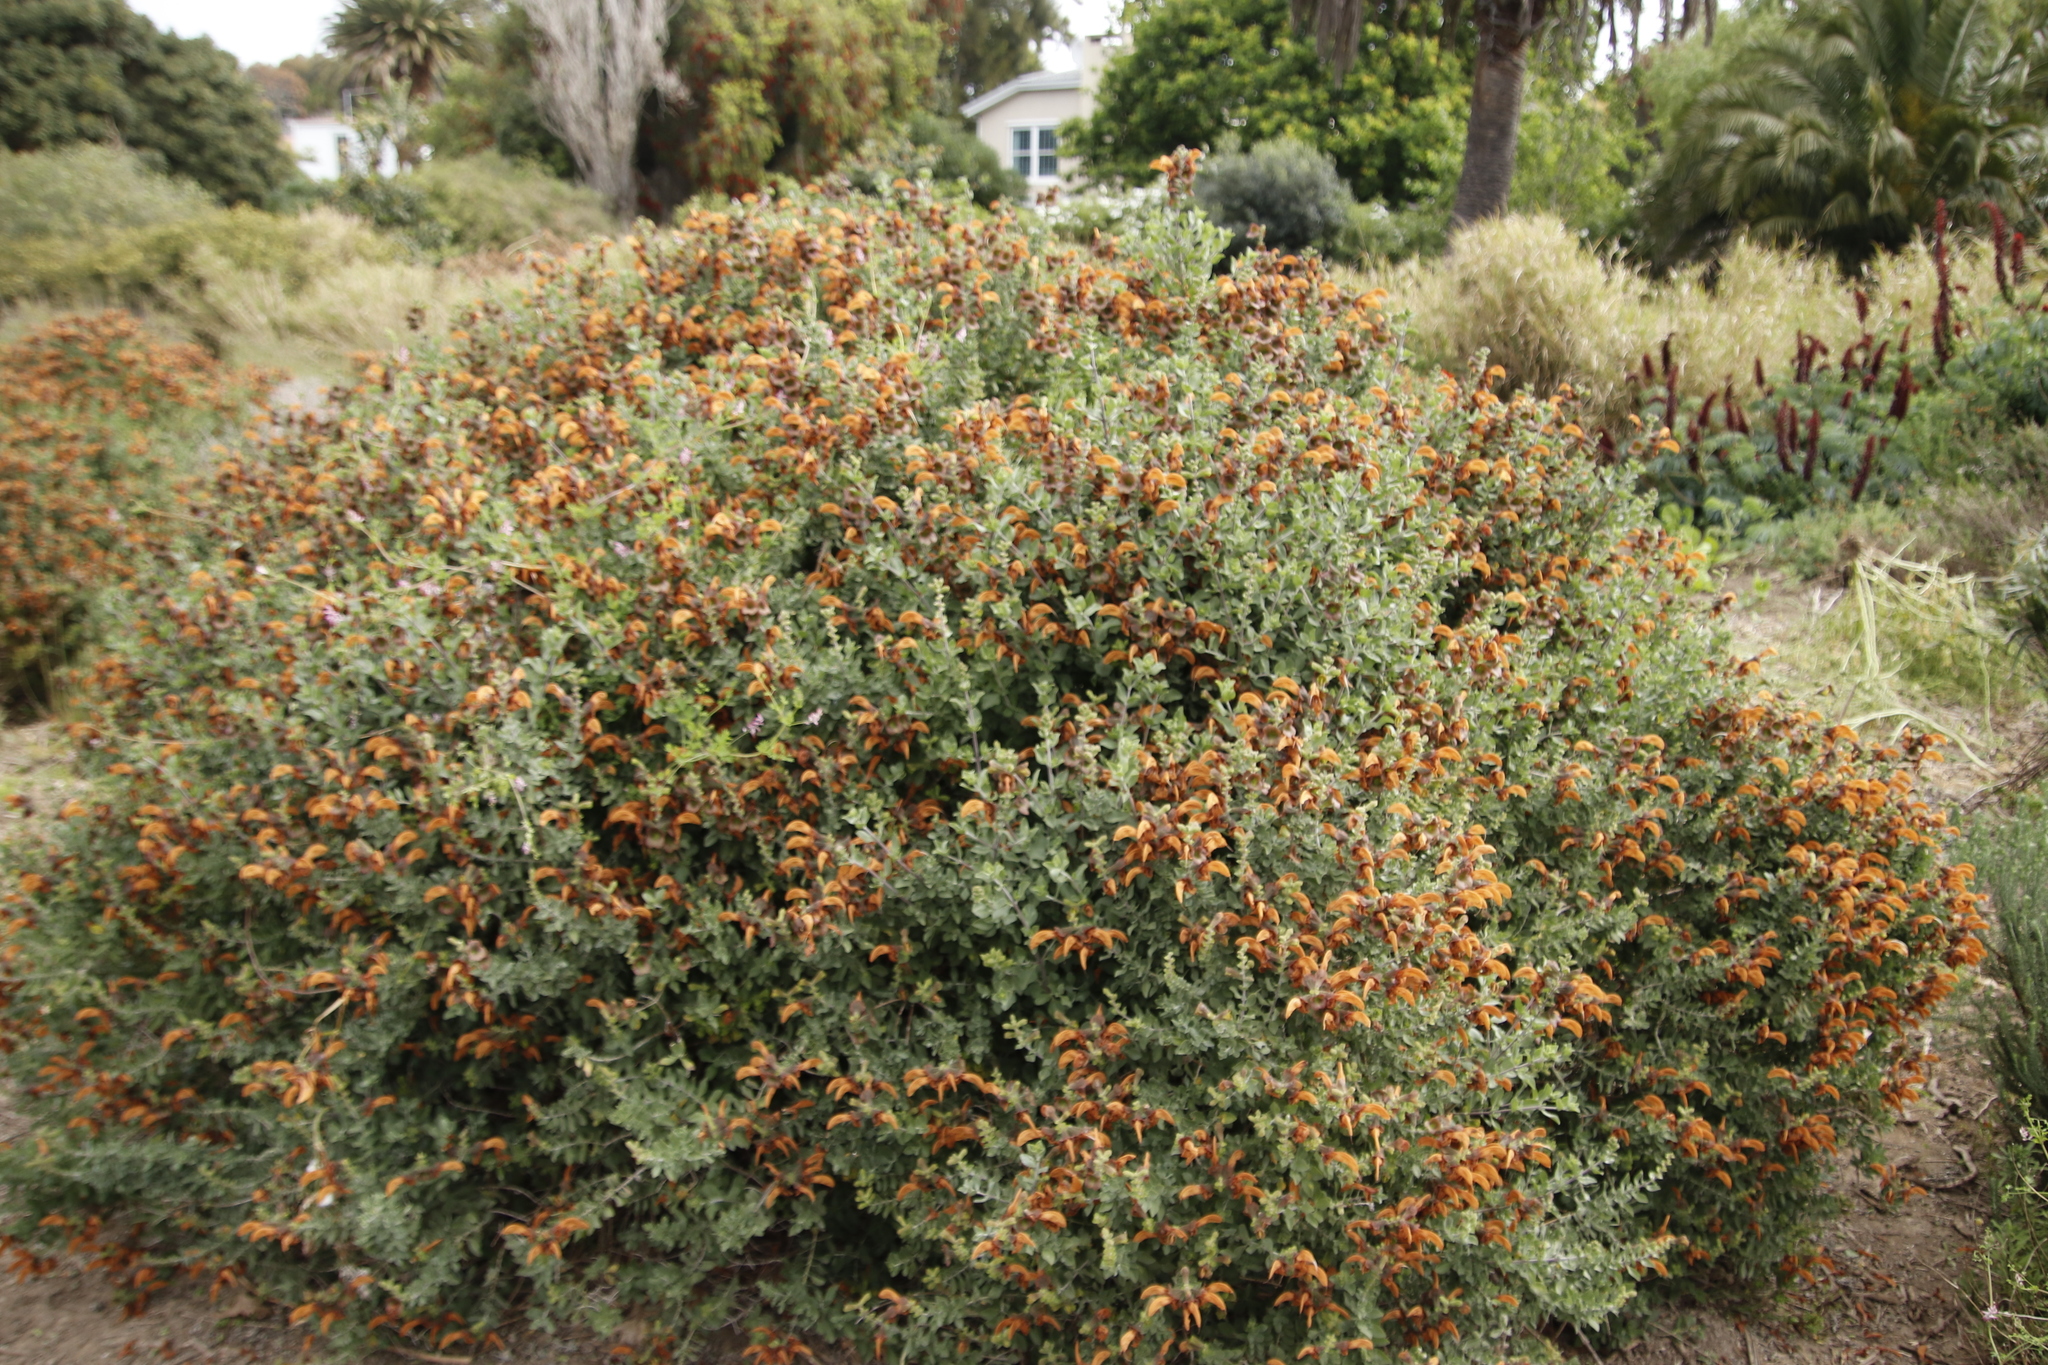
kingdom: Plantae
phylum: Tracheophyta
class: Magnoliopsida
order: Lamiales
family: Lamiaceae
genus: Salvia
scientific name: Salvia aurea
